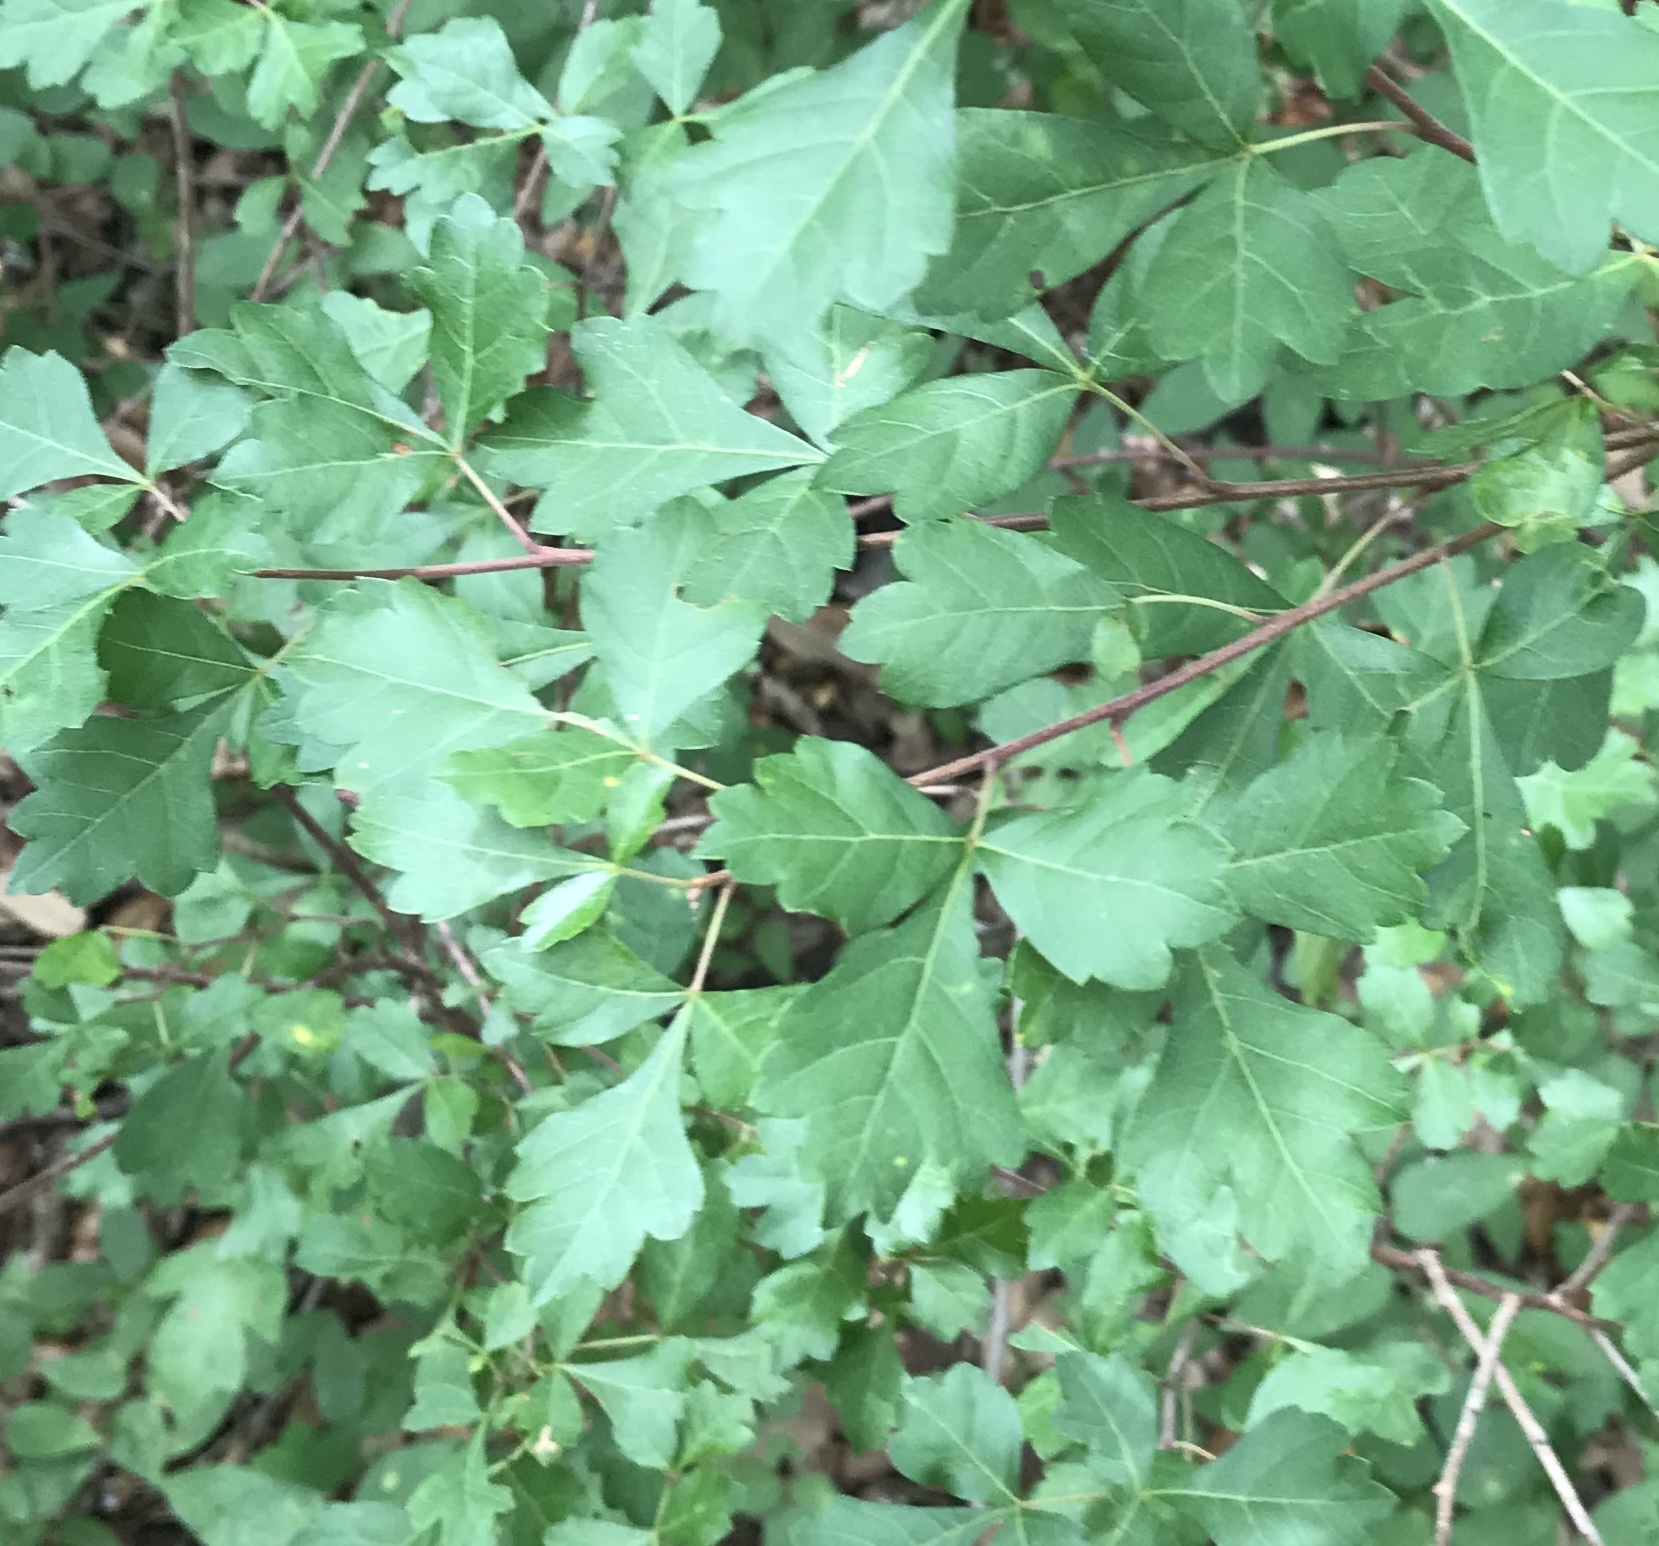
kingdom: Plantae
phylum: Tracheophyta
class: Magnoliopsida
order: Sapindales
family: Anacardiaceae
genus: Rhus
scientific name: Rhus aromatica
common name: Aromatic sumac
